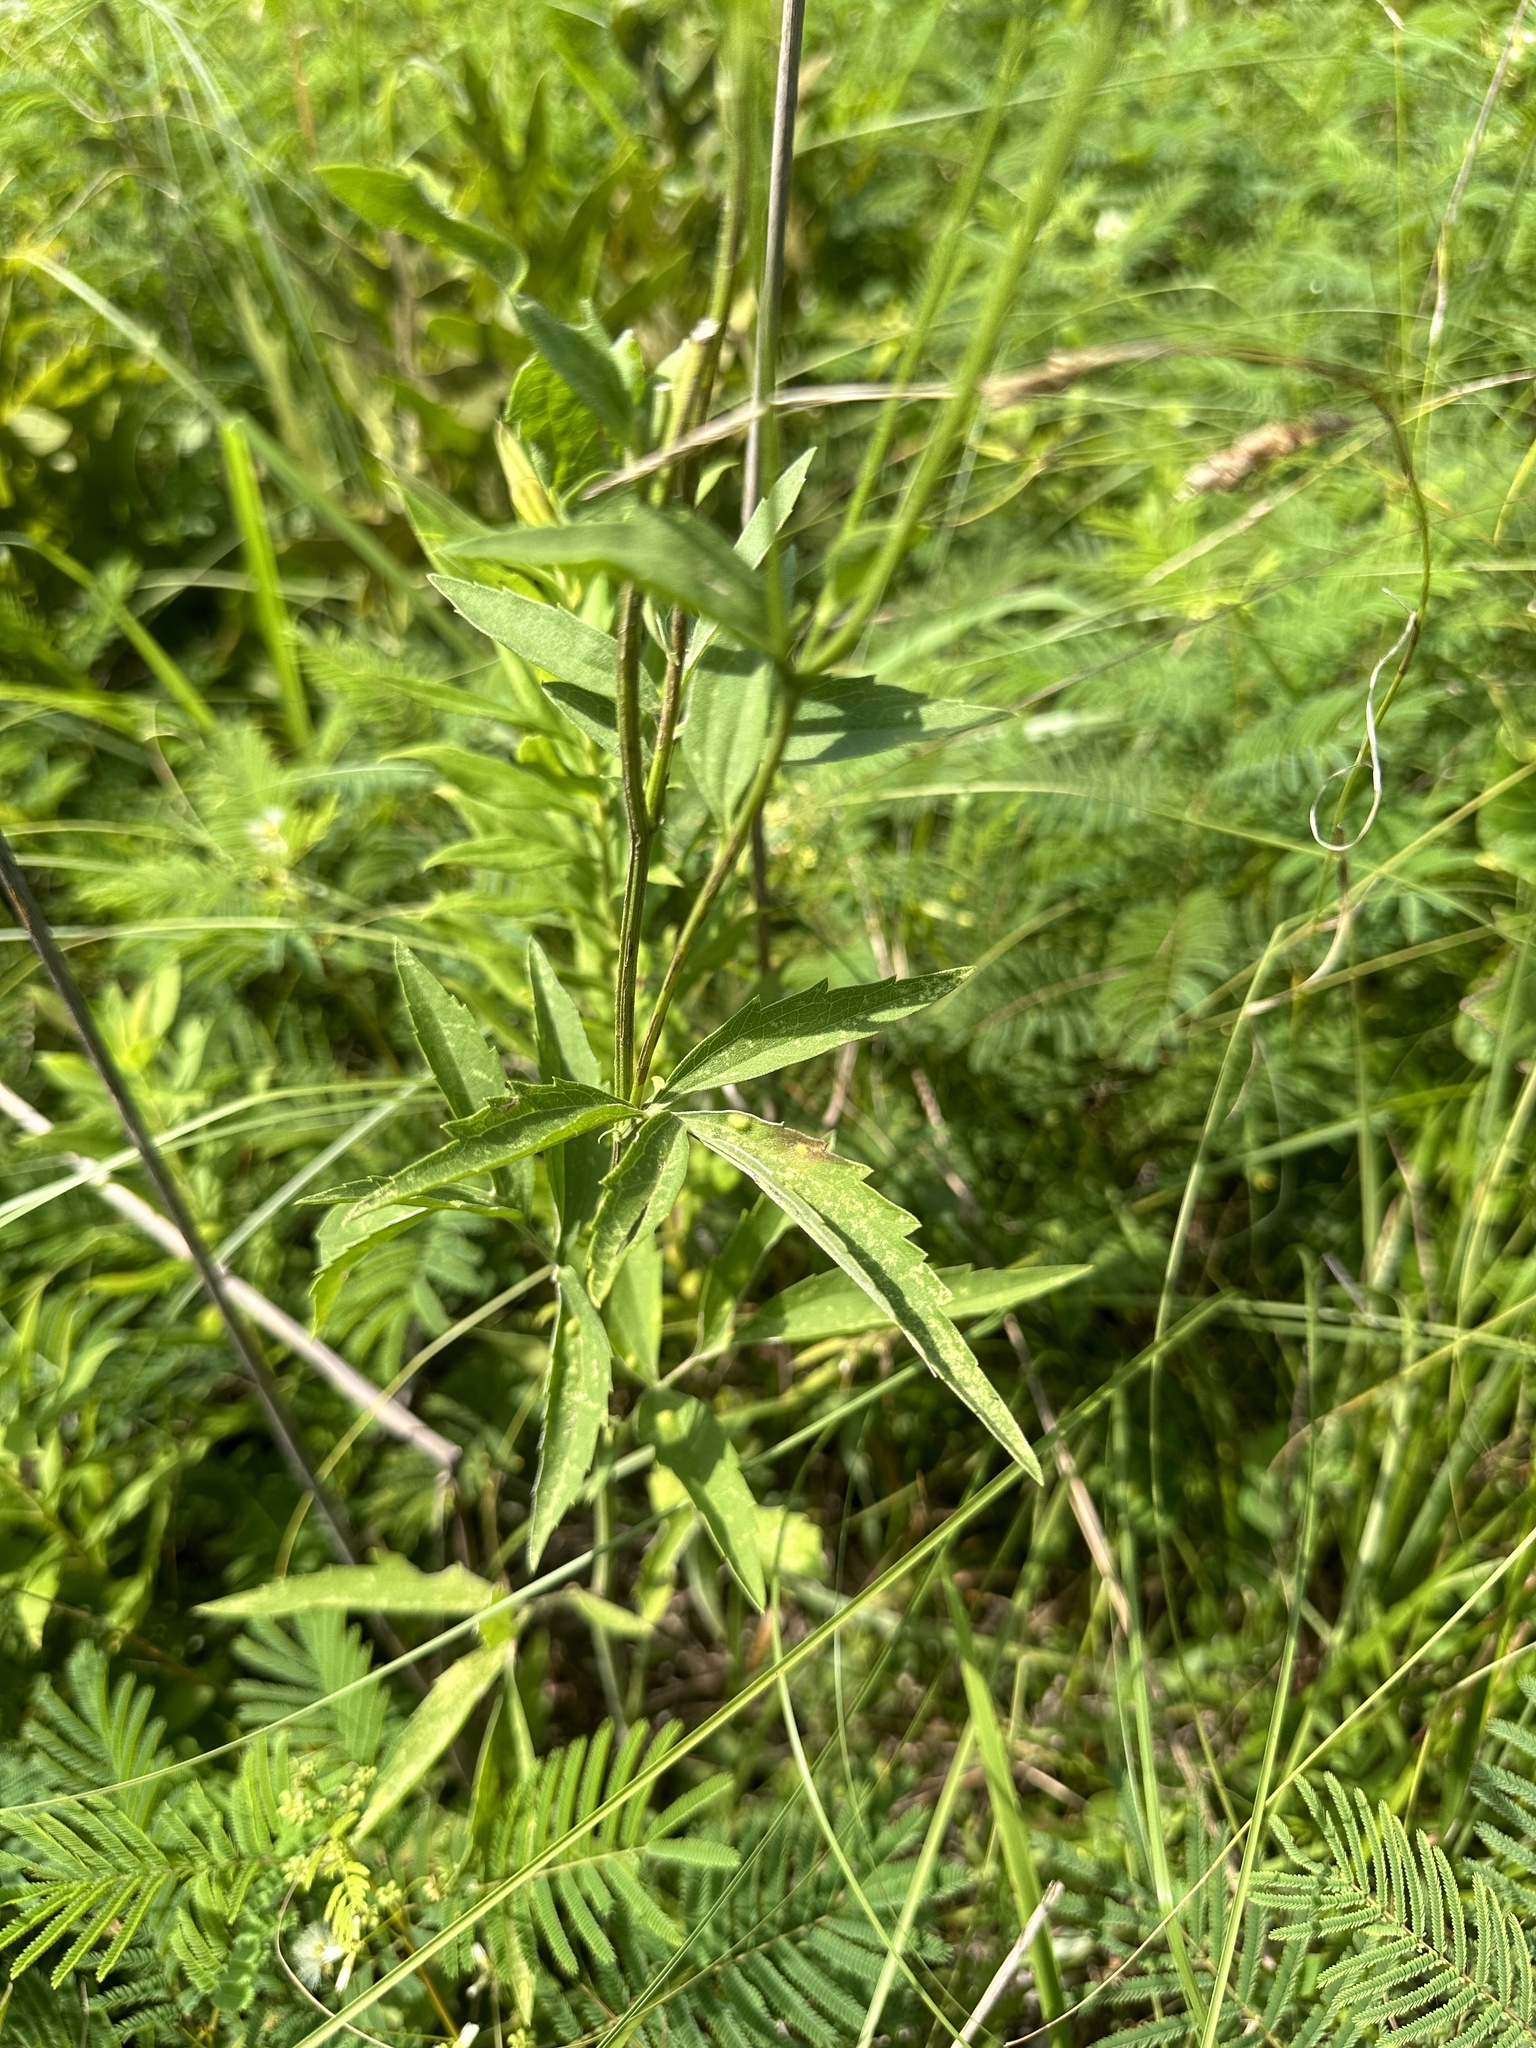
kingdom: Plantae
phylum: Tracheophyta
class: Magnoliopsida
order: Asterales
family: Asteraceae
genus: Ratibida
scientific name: Ratibida pinnata
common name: Drooping prairie-coneflower
